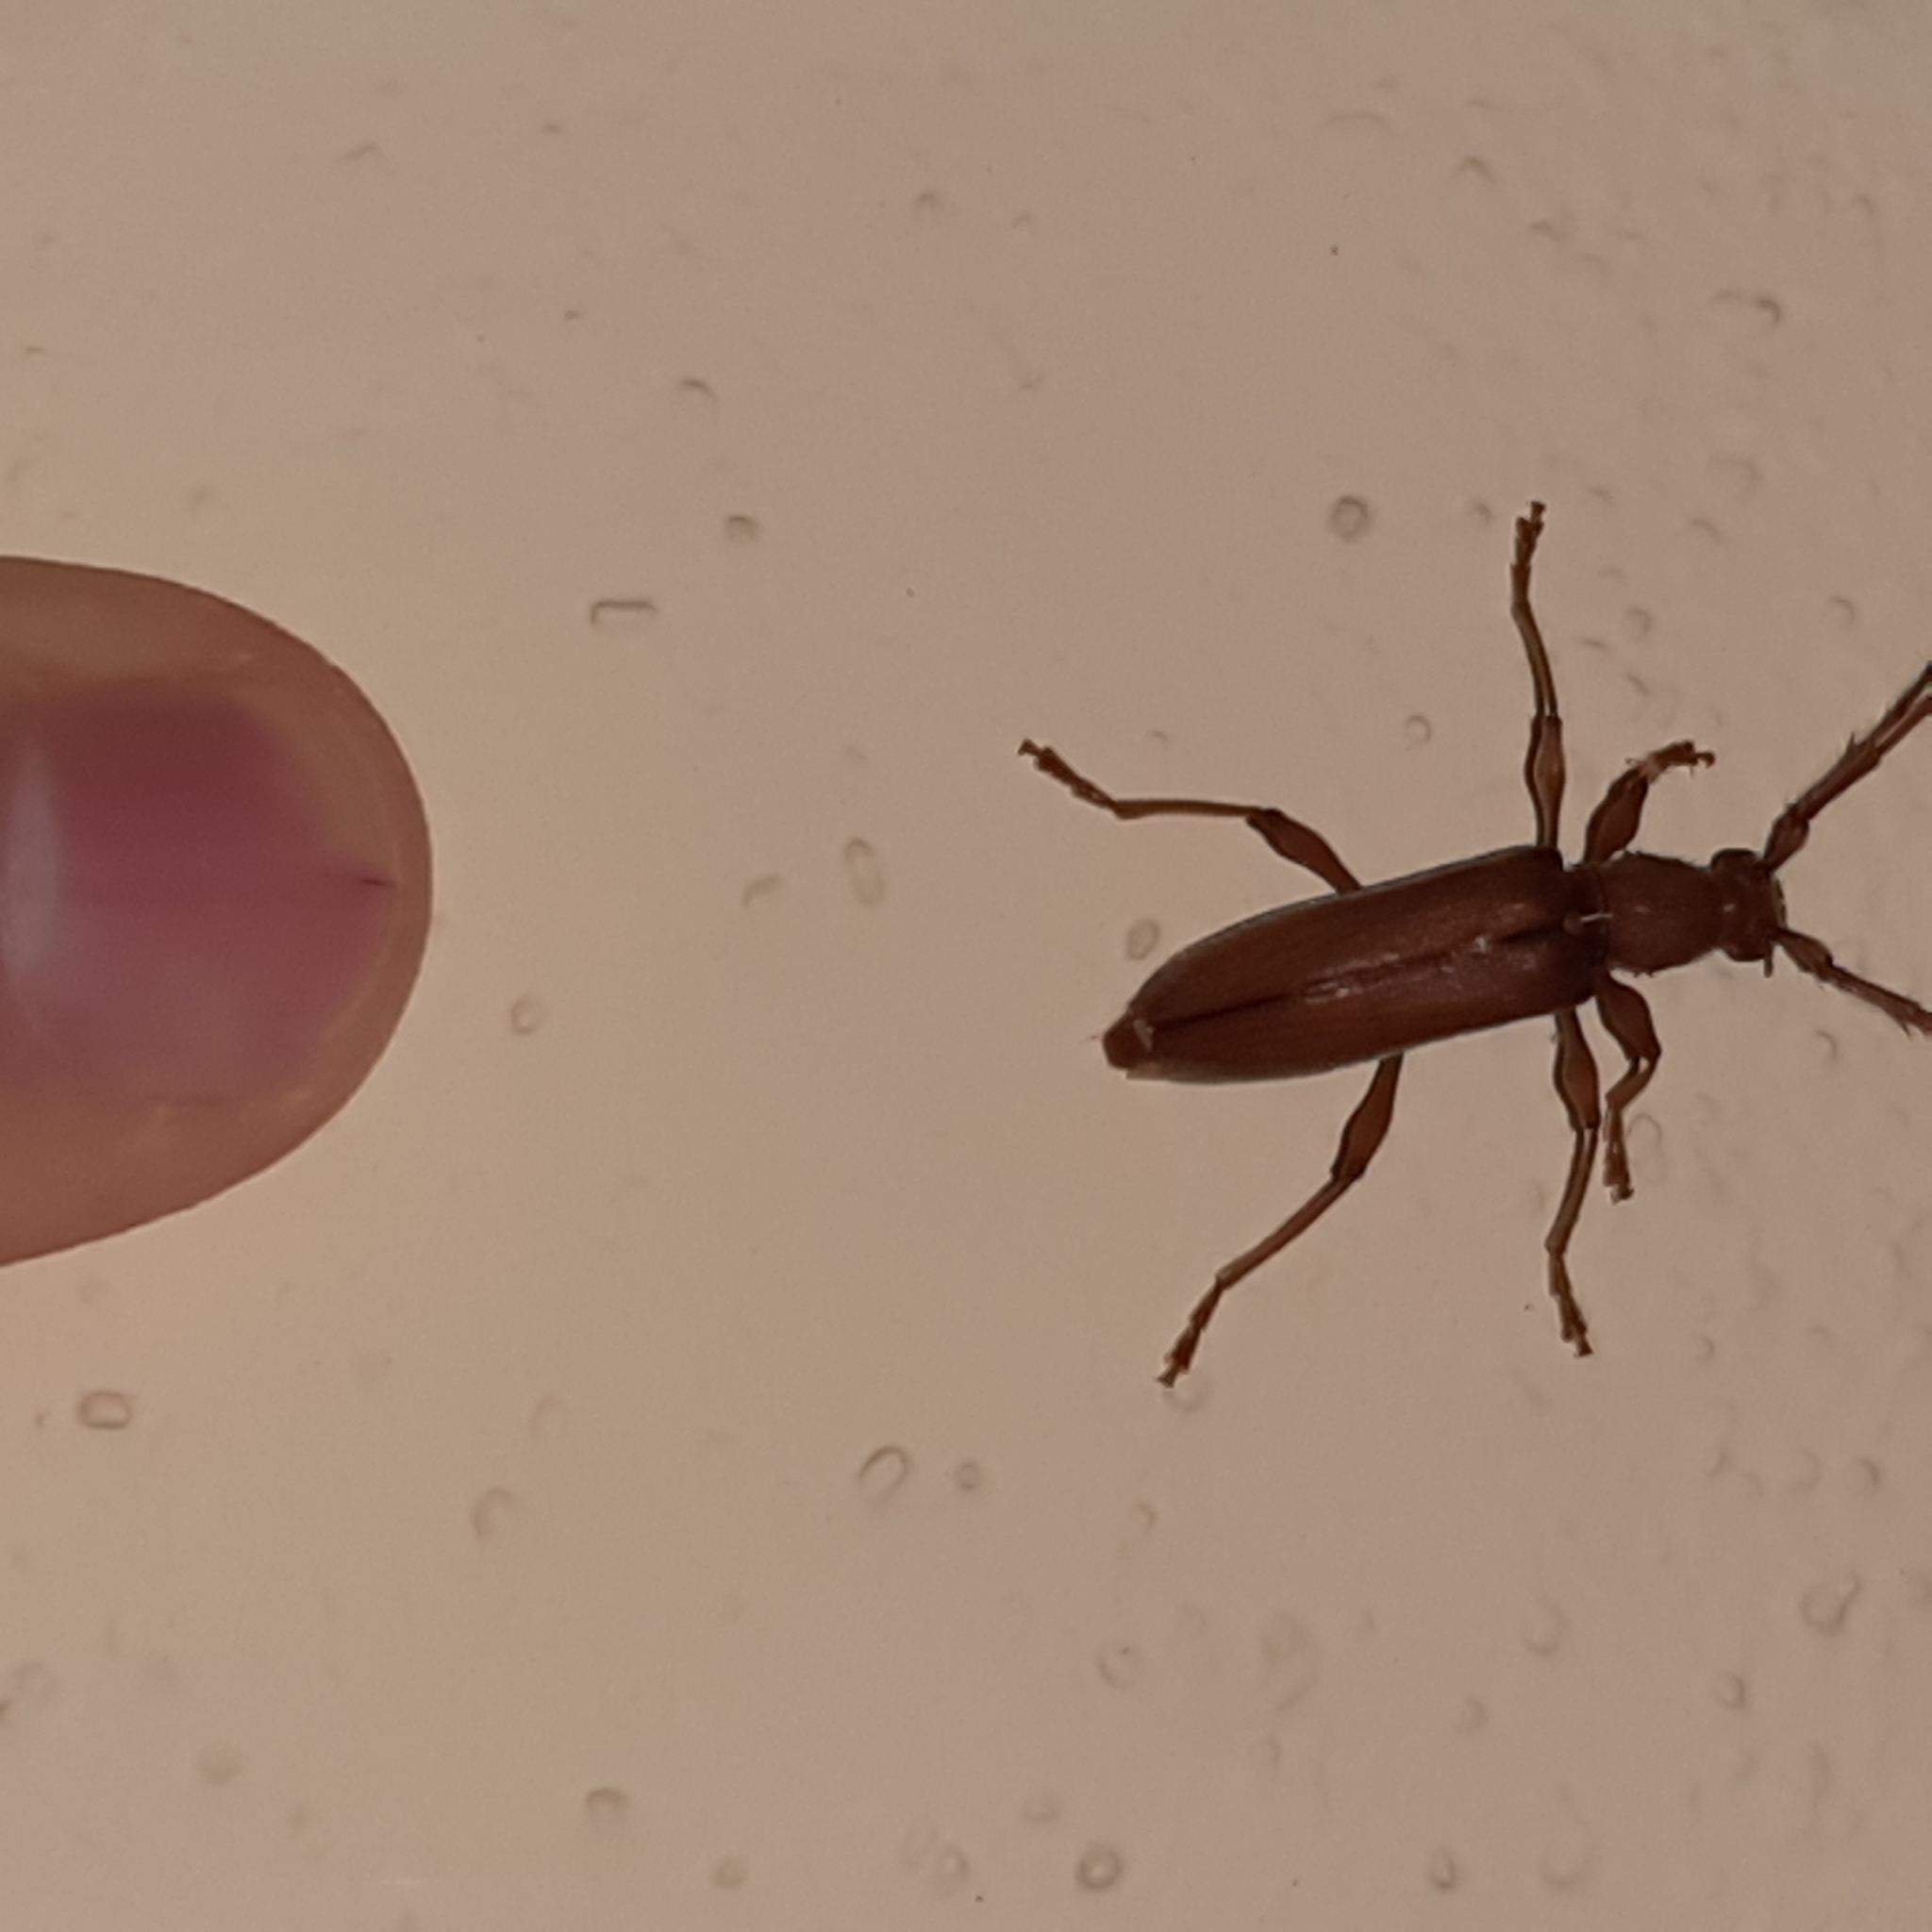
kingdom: Animalia
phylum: Arthropoda
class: Insecta
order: Coleoptera
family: Cerambycidae
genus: Miltesthus
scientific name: Miltesthus marginatus
